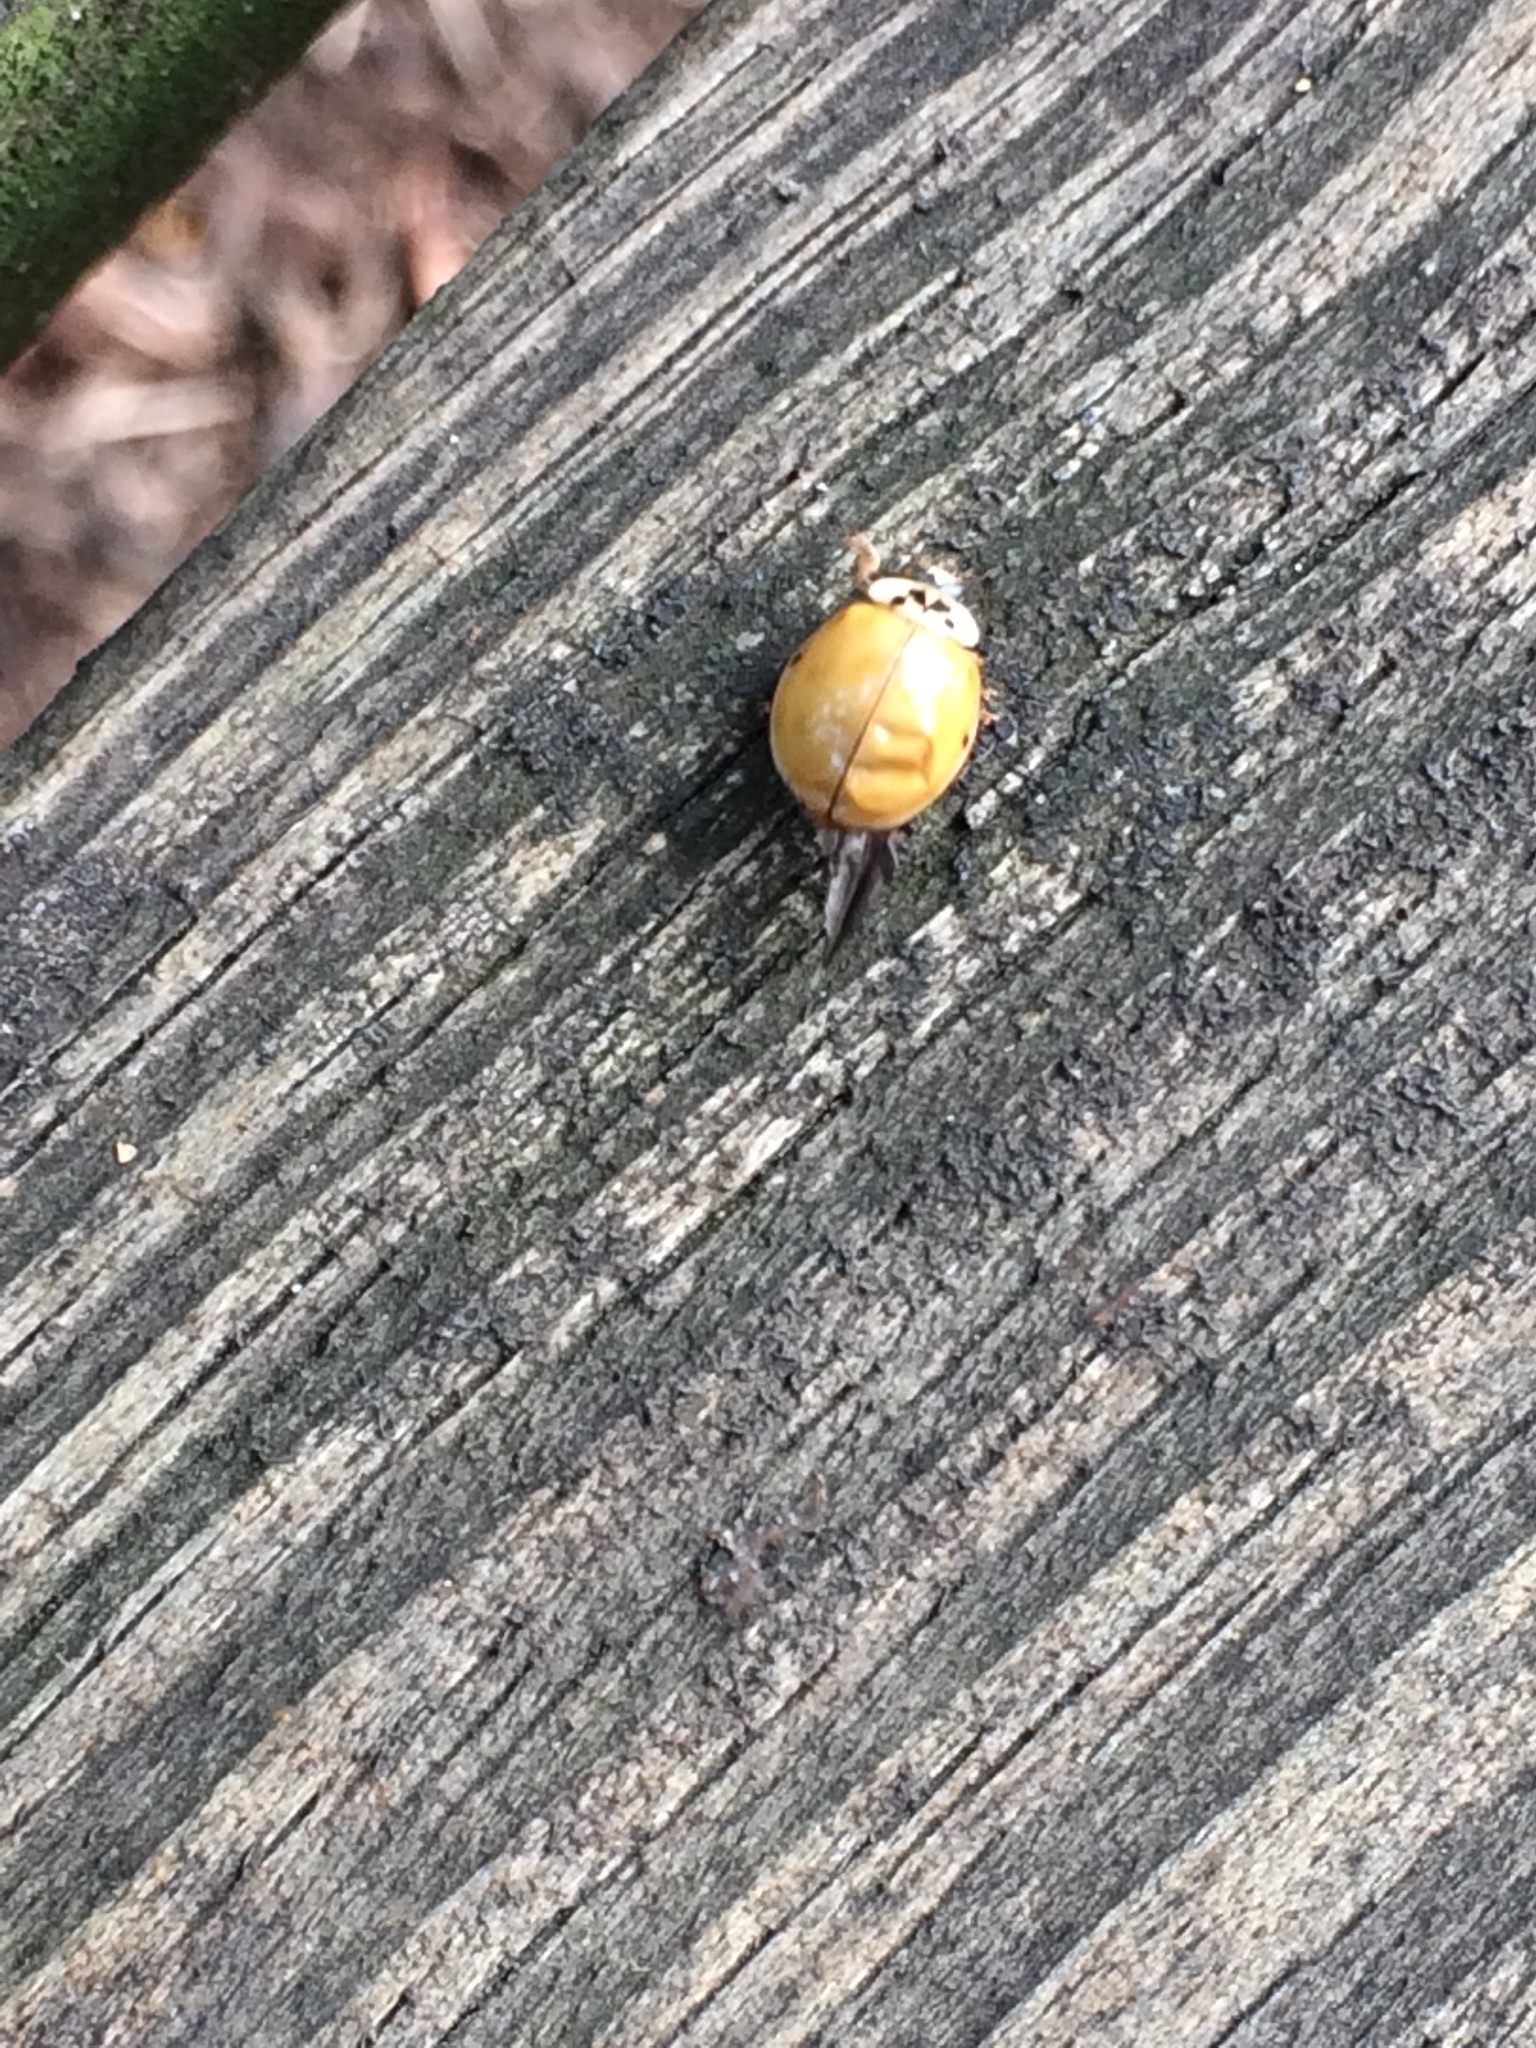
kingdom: Animalia
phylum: Arthropoda
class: Insecta
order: Coleoptera
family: Coccinellidae
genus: Harmonia
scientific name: Harmonia axyridis
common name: Harlequin ladybird
